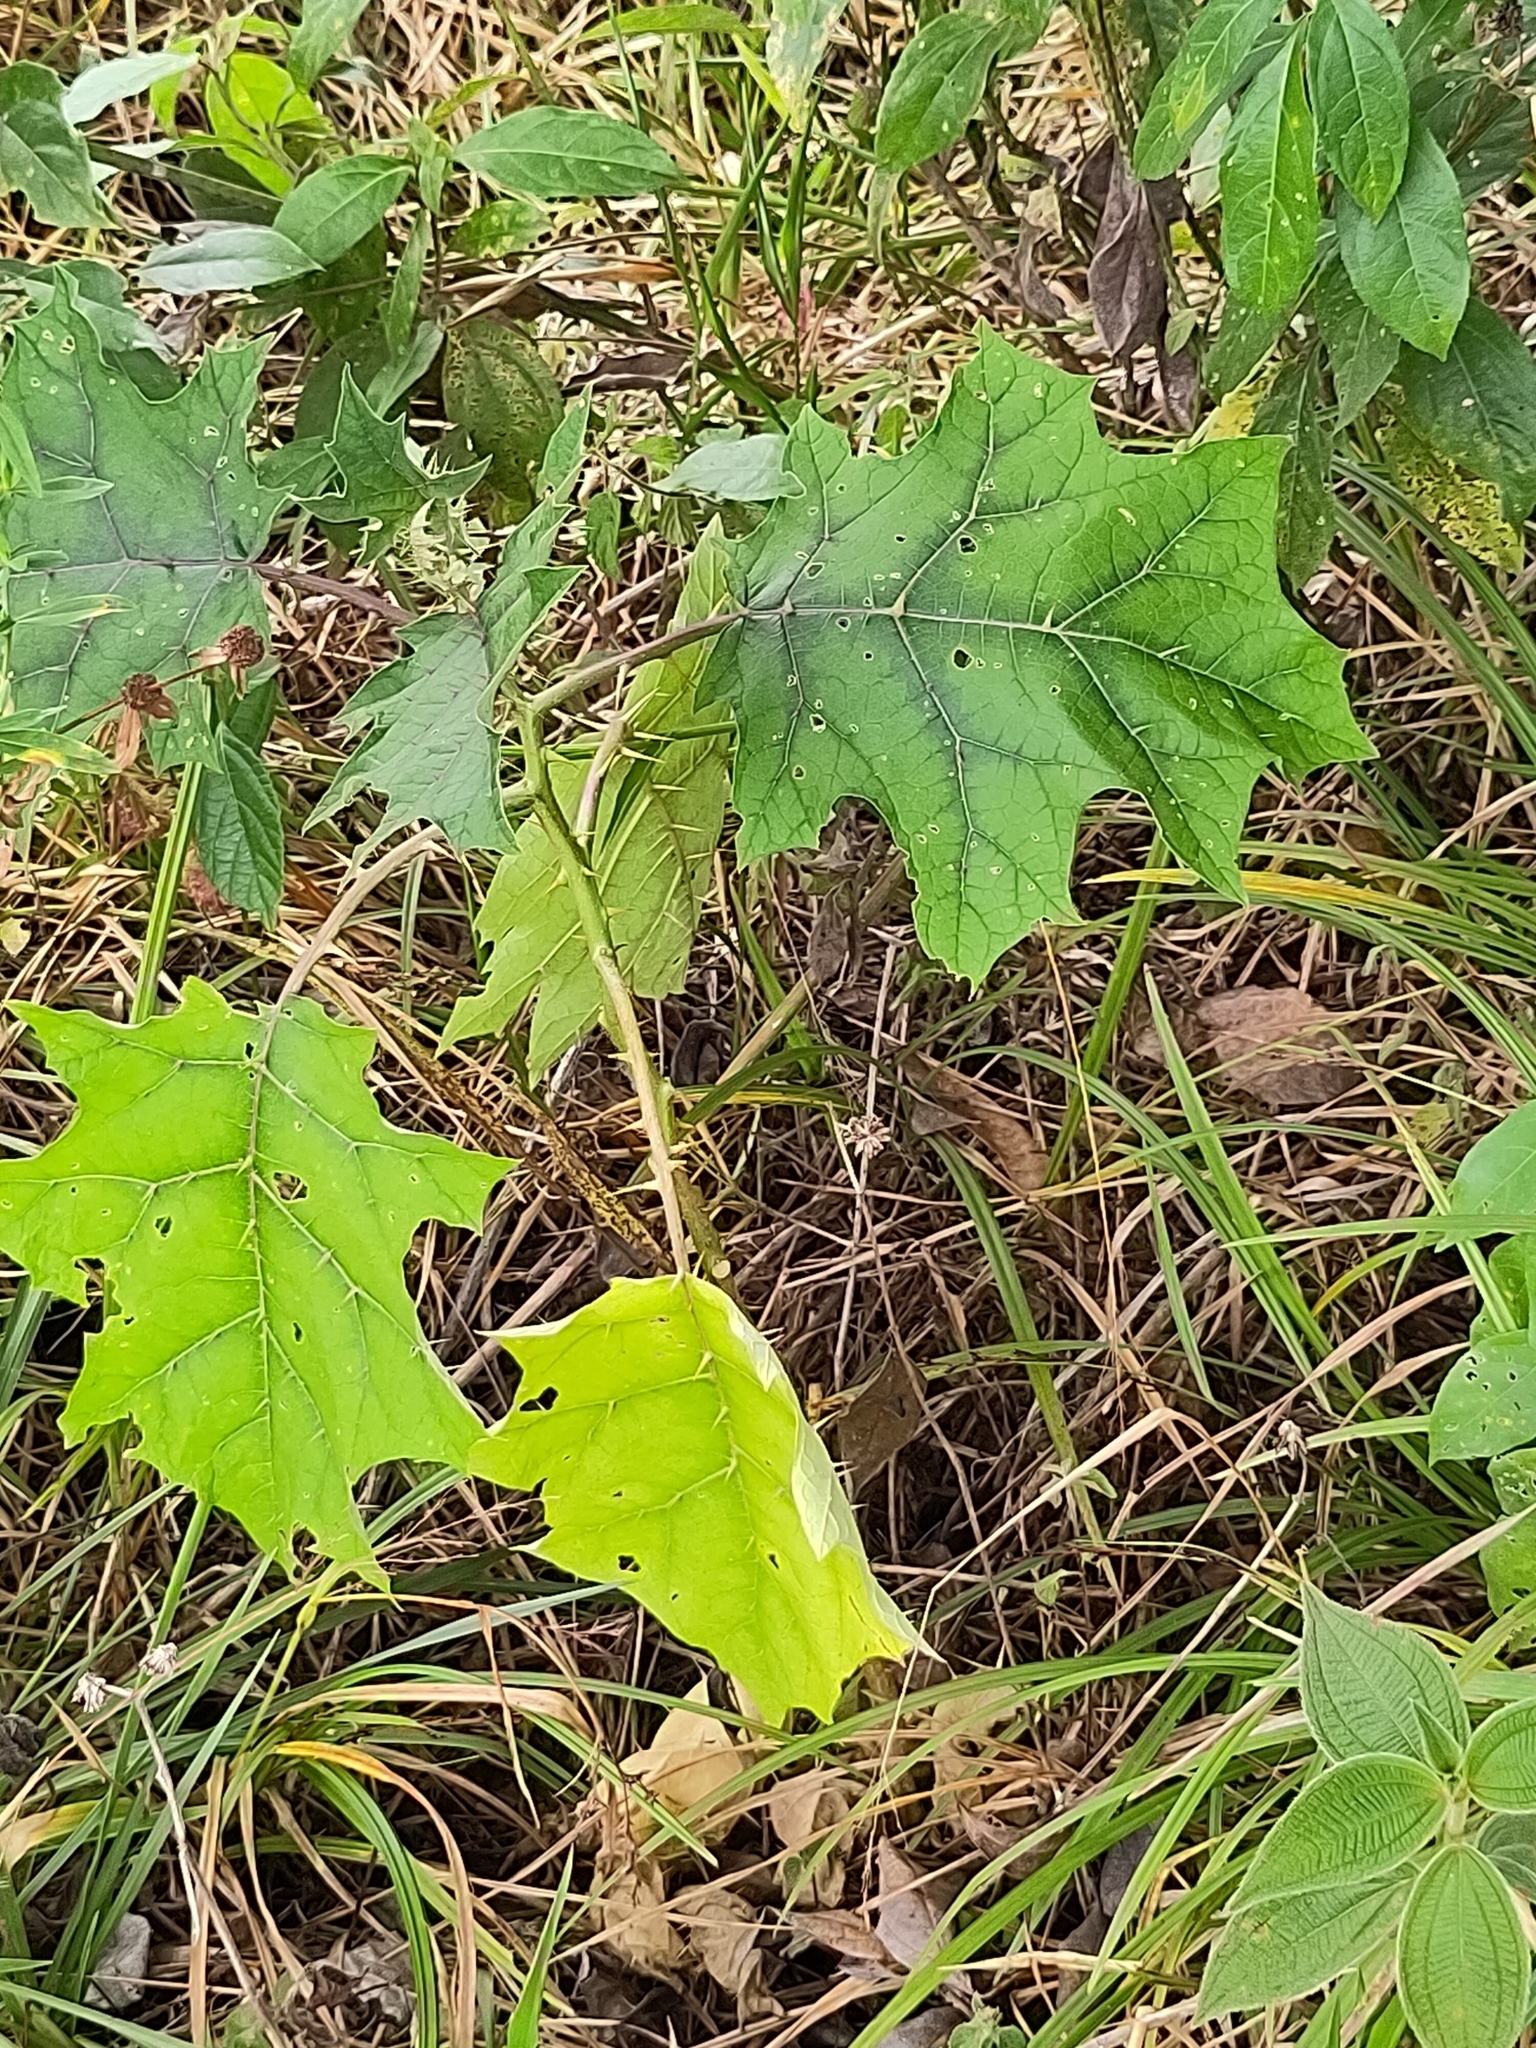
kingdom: Plantae
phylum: Tracheophyta
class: Magnoliopsida
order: Solanales
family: Solanaceae
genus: Solanum
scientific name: Solanum
